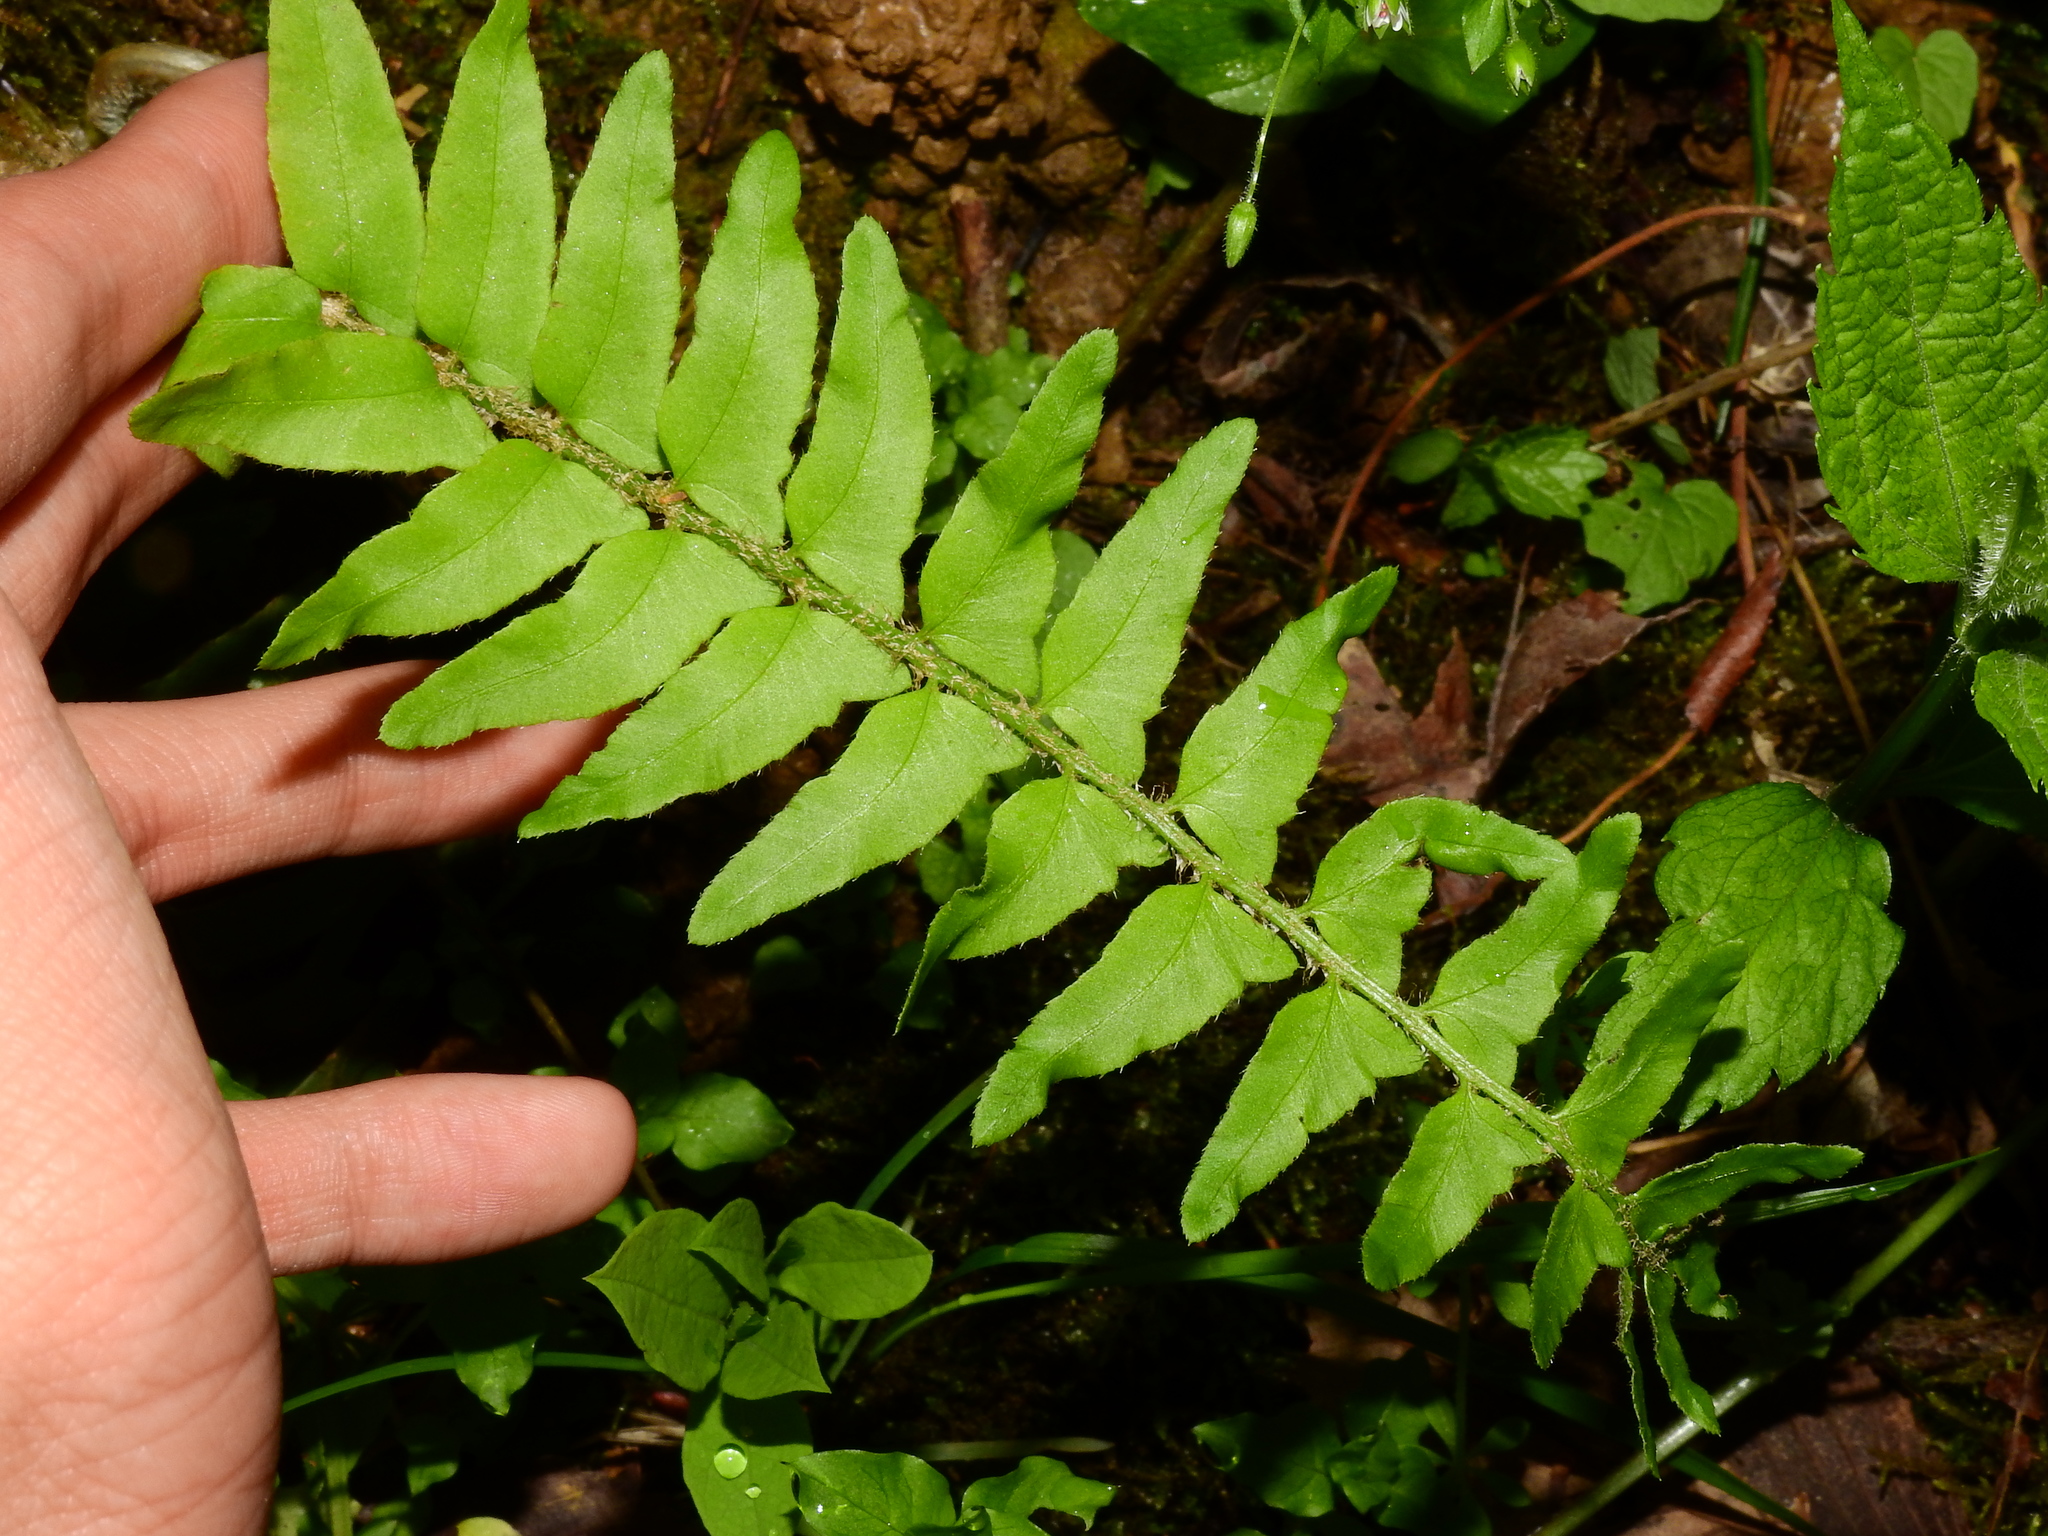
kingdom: Plantae
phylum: Tracheophyta
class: Polypodiopsida
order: Polypodiales
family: Dryopteridaceae
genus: Polystichum
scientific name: Polystichum acrostichoides
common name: Christmas fern
